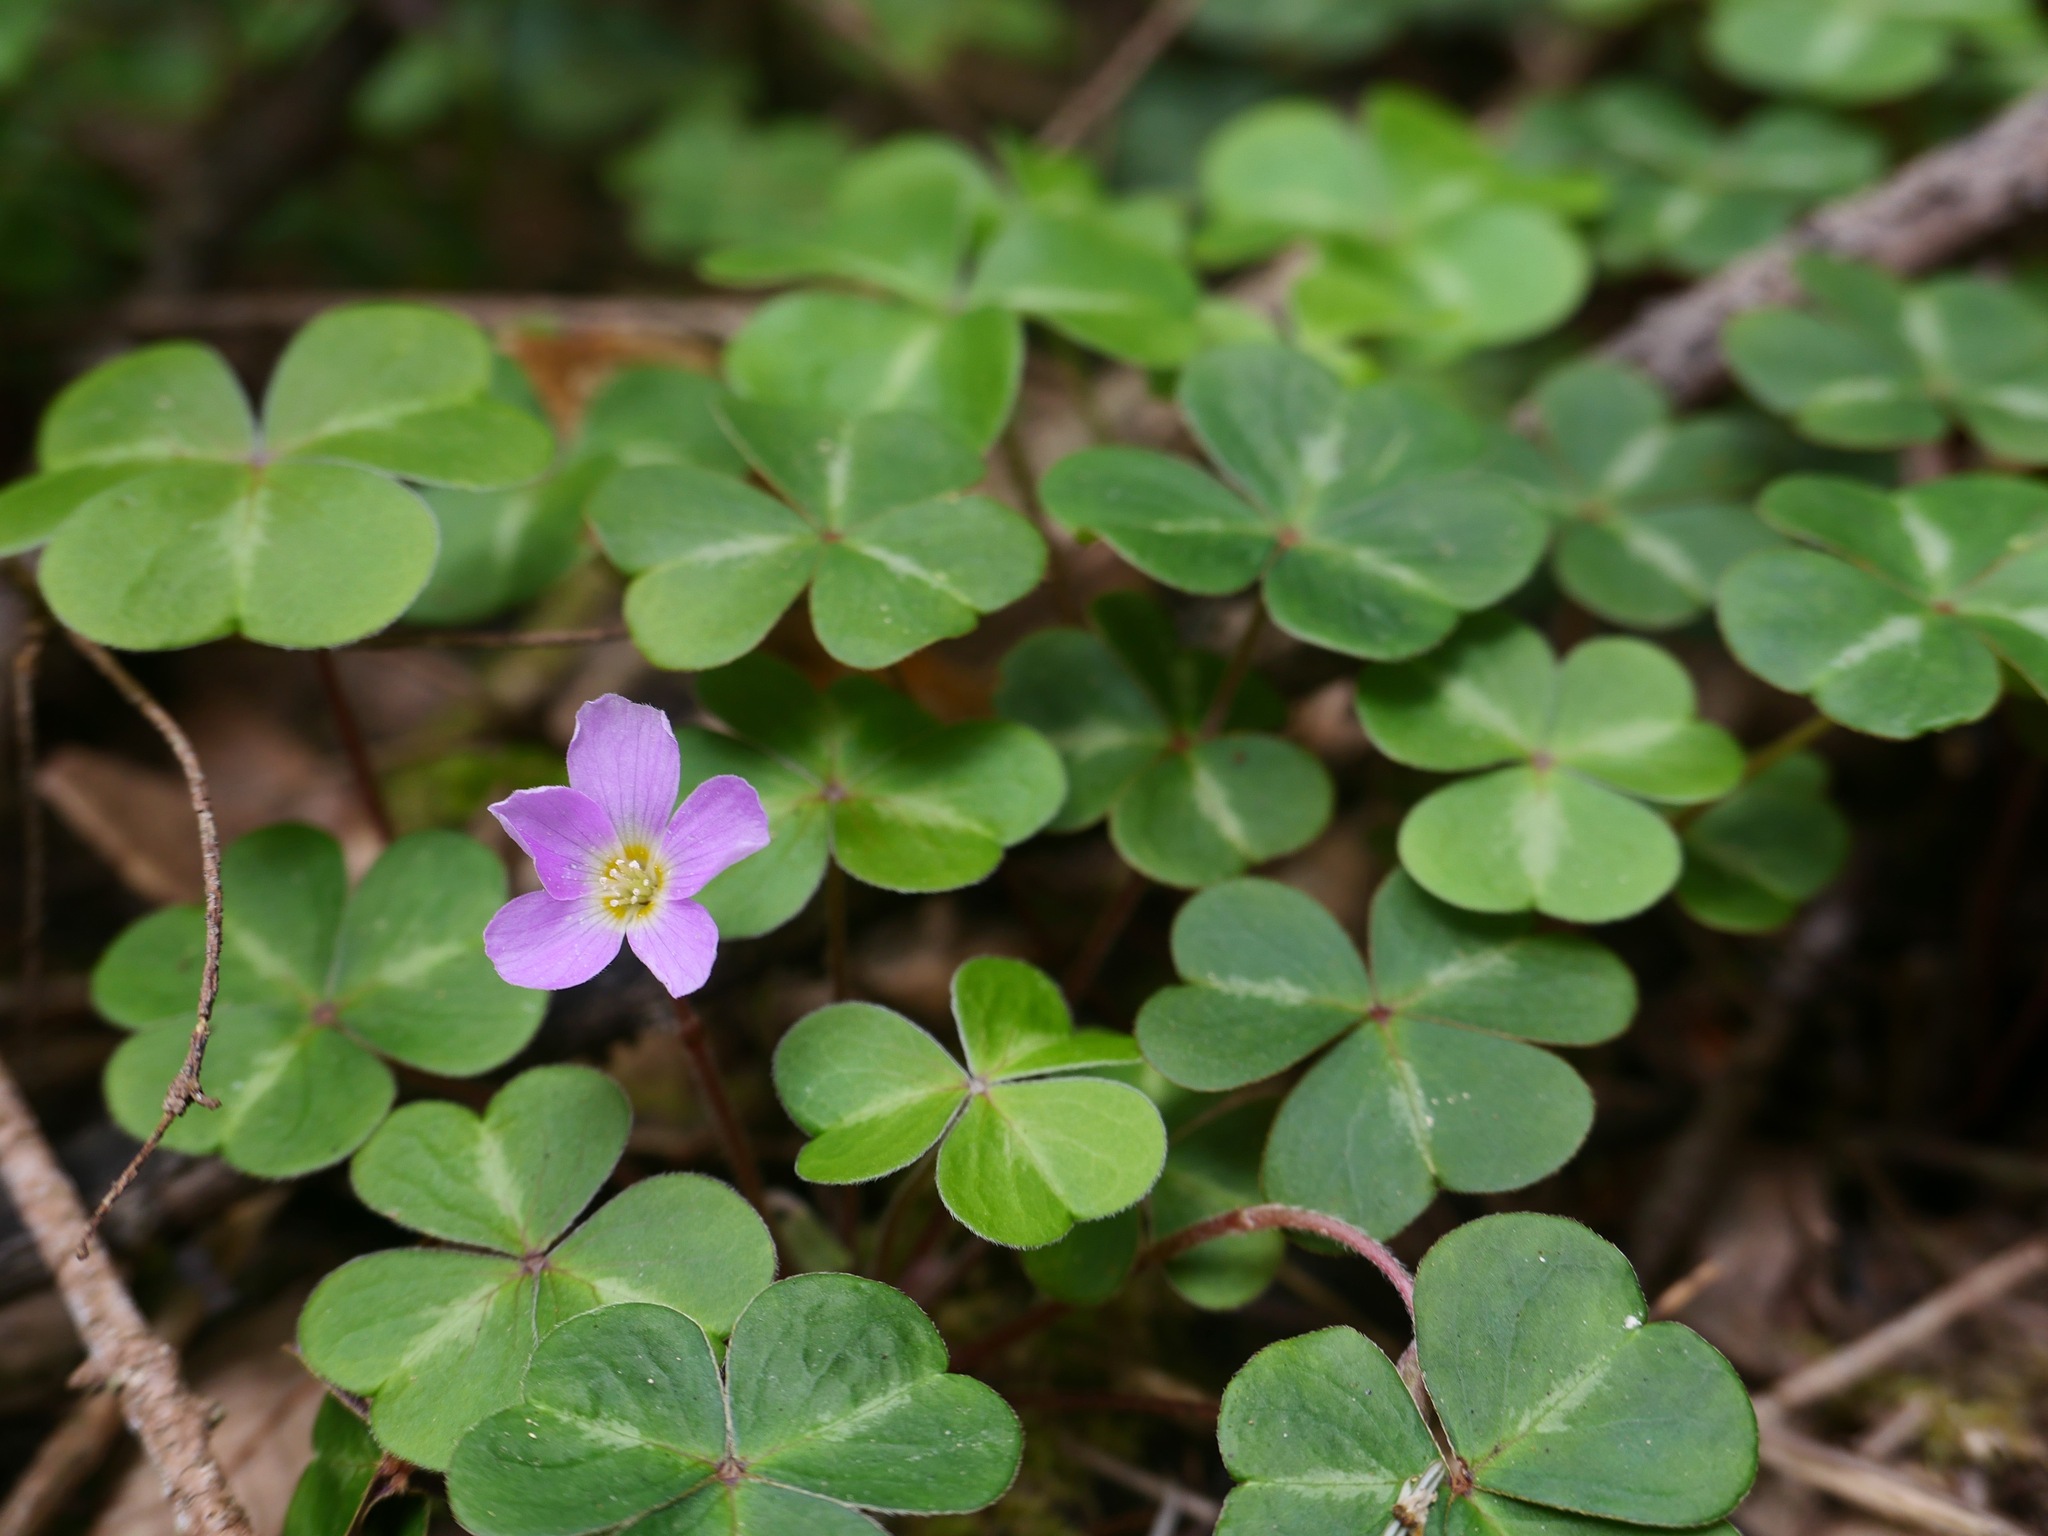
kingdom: Plantae
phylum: Tracheophyta
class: Magnoliopsida
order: Oxalidales
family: Oxalidaceae
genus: Oxalis
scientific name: Oxalis oregana
